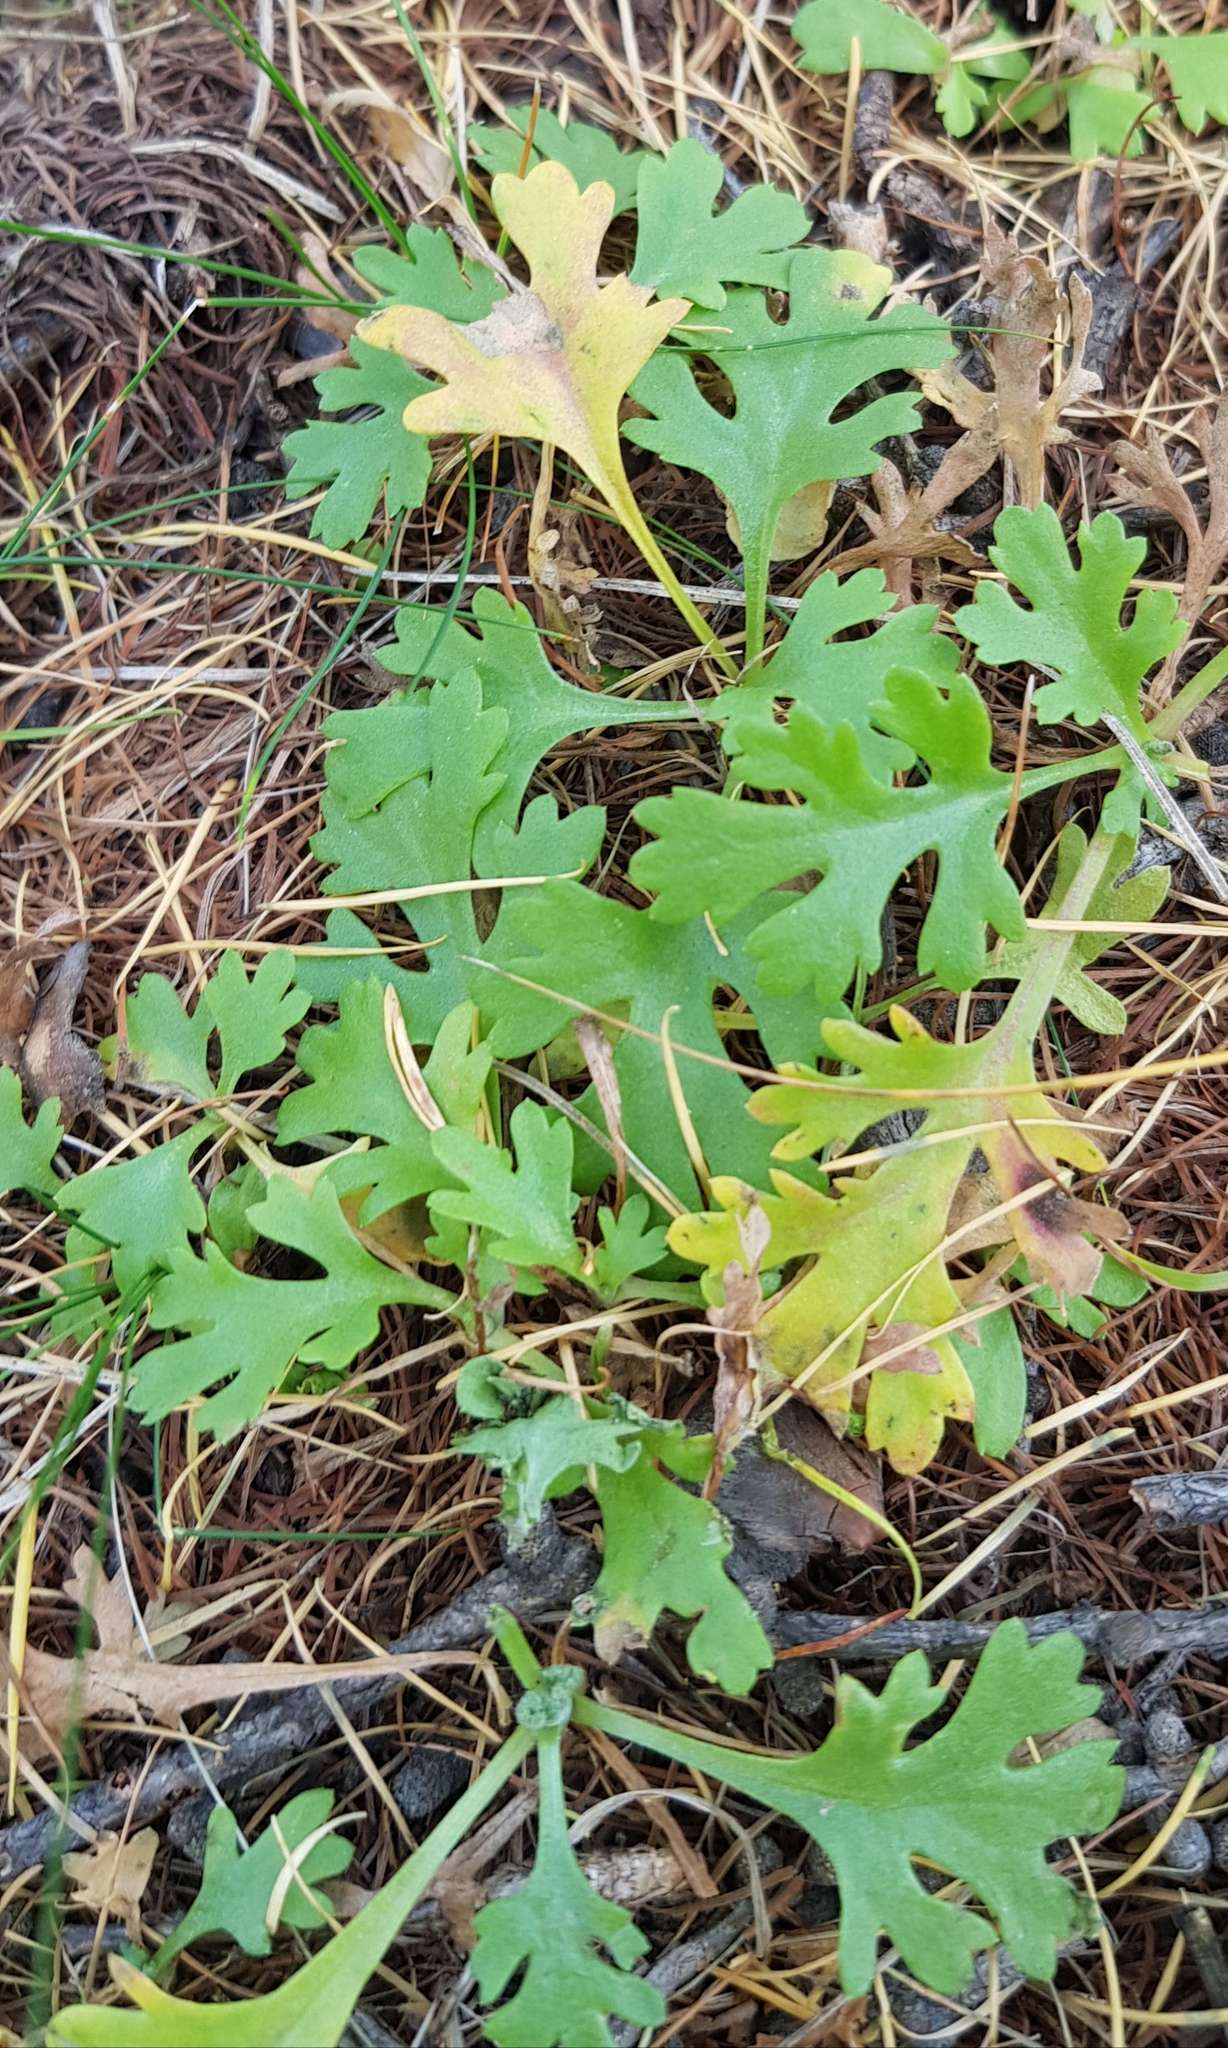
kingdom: Plantae
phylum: Tracheophyta
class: Magnoliopsida
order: Asterales
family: Asteraceae
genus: Chrysanthemum
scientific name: Chrysanthemum zawadzkii
